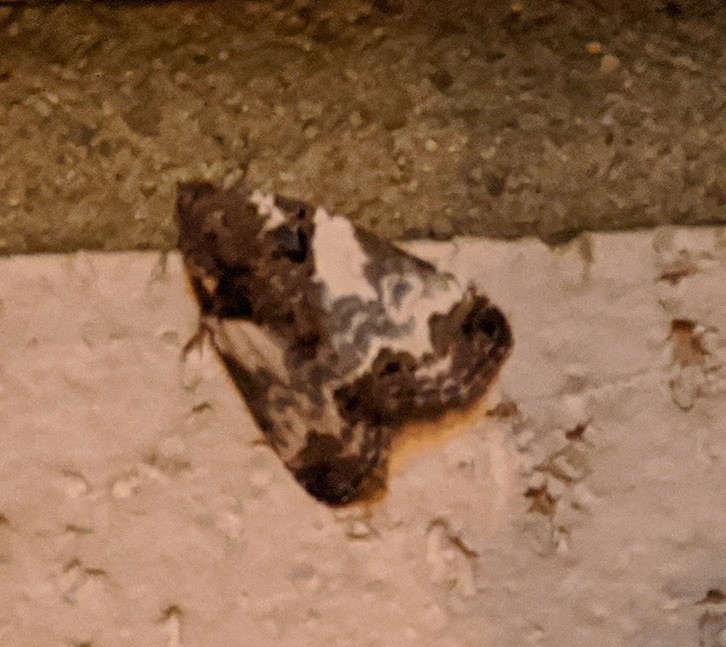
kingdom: Animalia
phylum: Arthropoda
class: Insecta
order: Lepidoptera
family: Noctuidae
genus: Cerma
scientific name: Cerma cerintha
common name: Tufted bird-dropping moth
